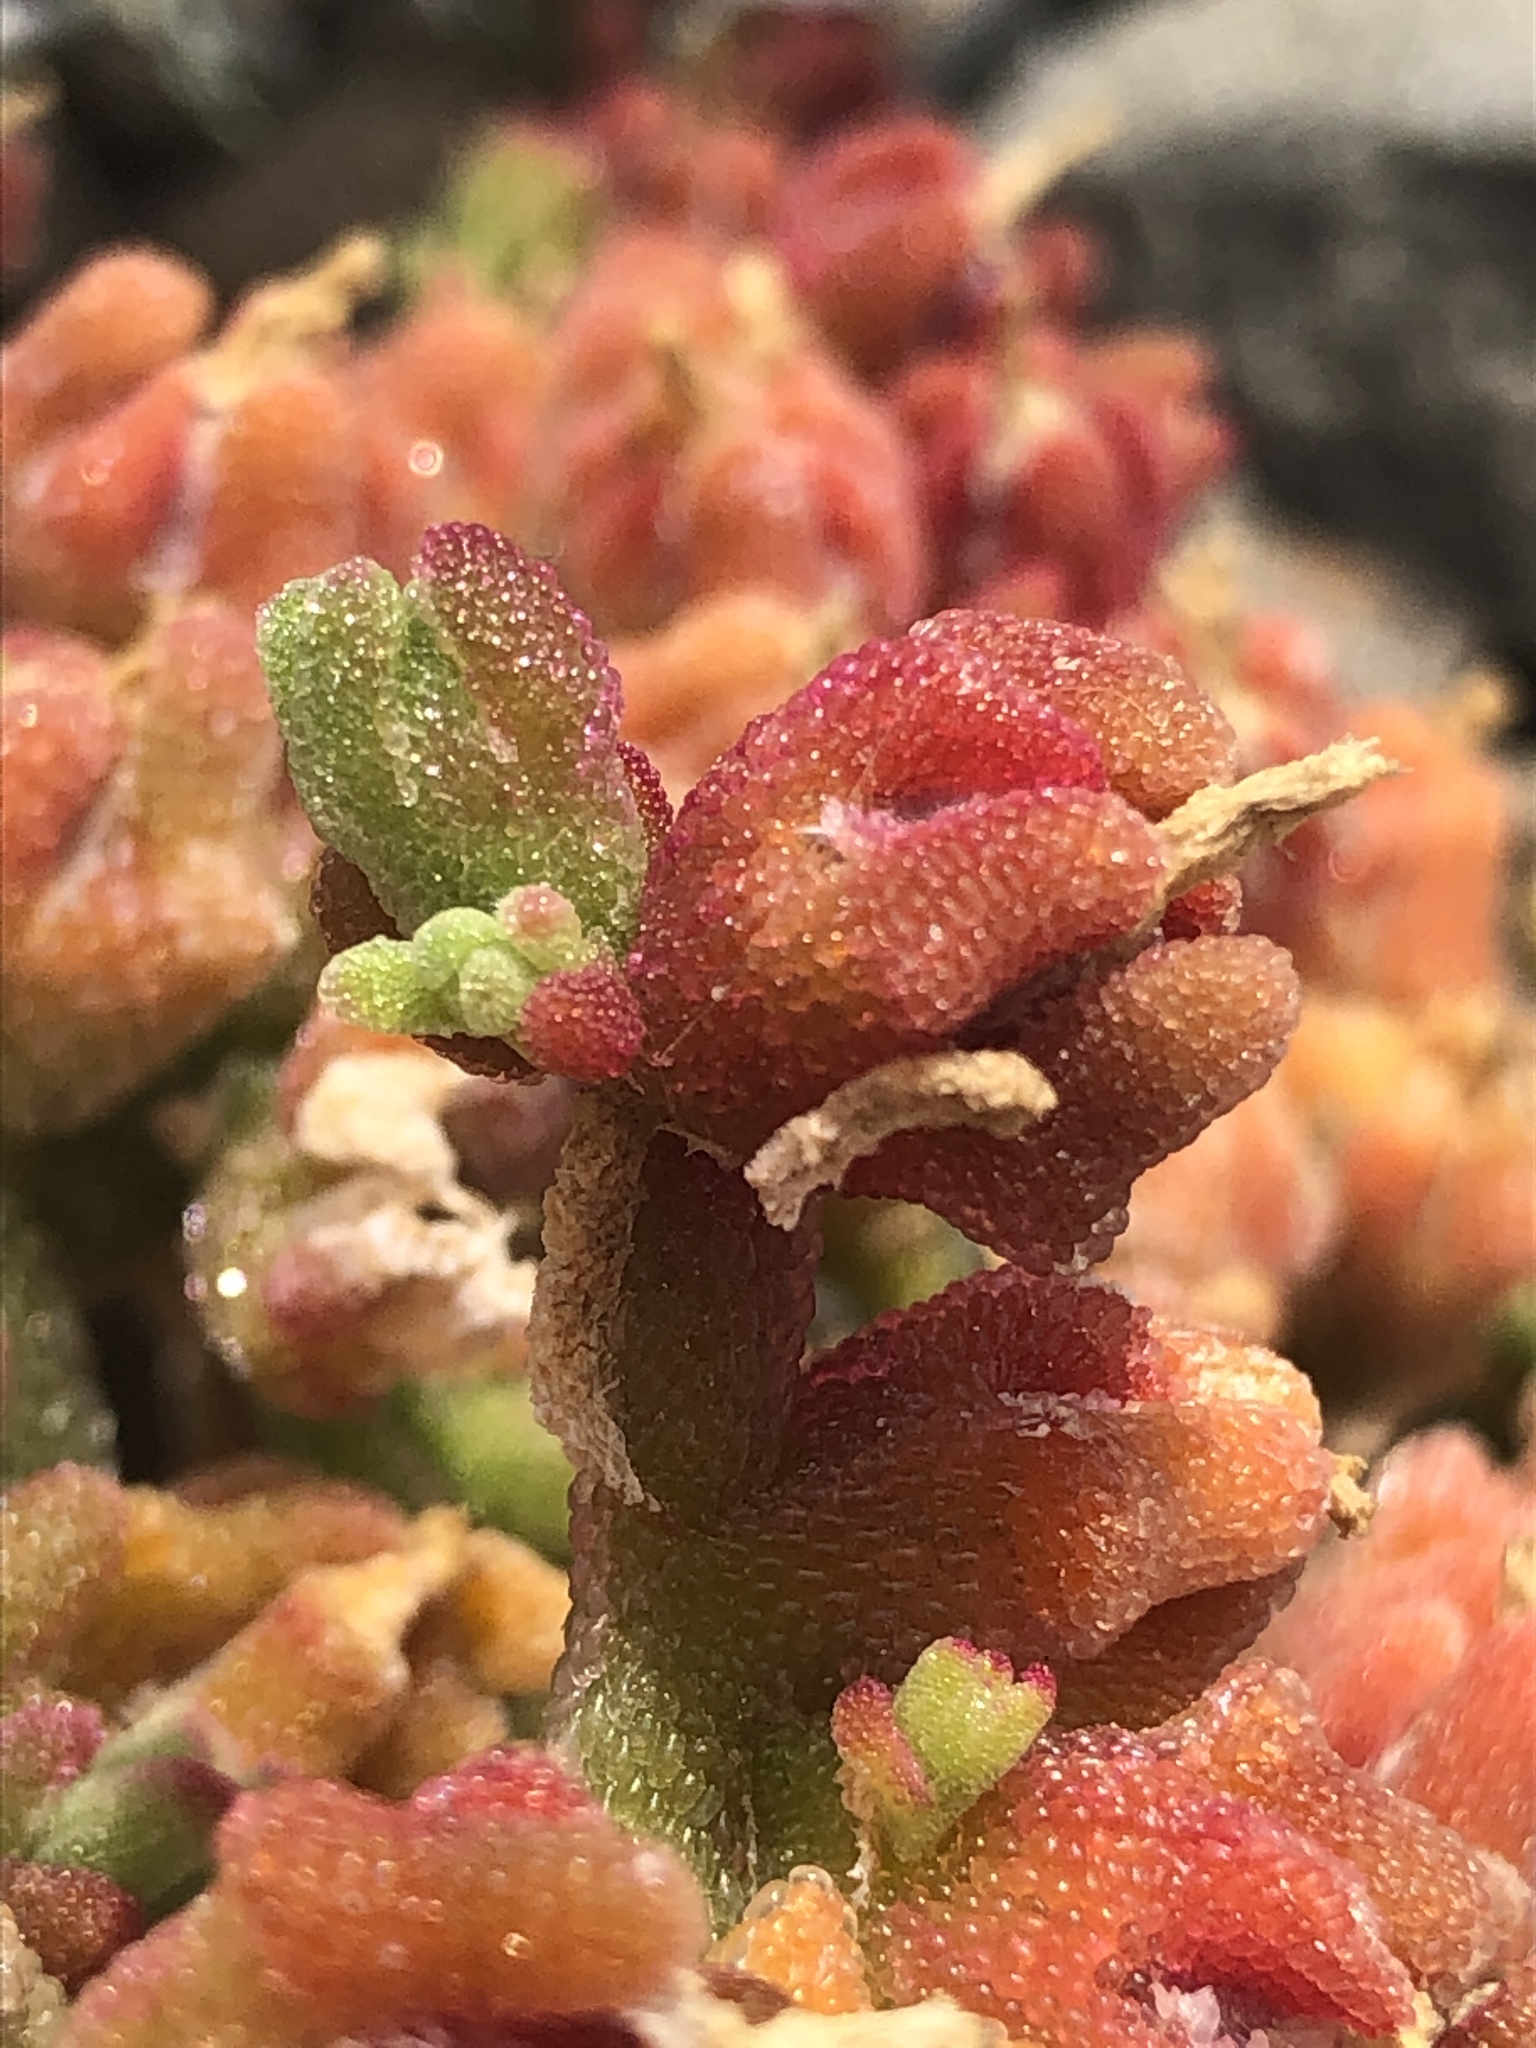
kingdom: Plantae
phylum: Tracheophyta
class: Magnoliopsida
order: Caryophyllales
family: Aizoaceae
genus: Mesembryanthemum
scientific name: Mesembryanthemum nodiflorum
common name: Slenderleaf iceplant
